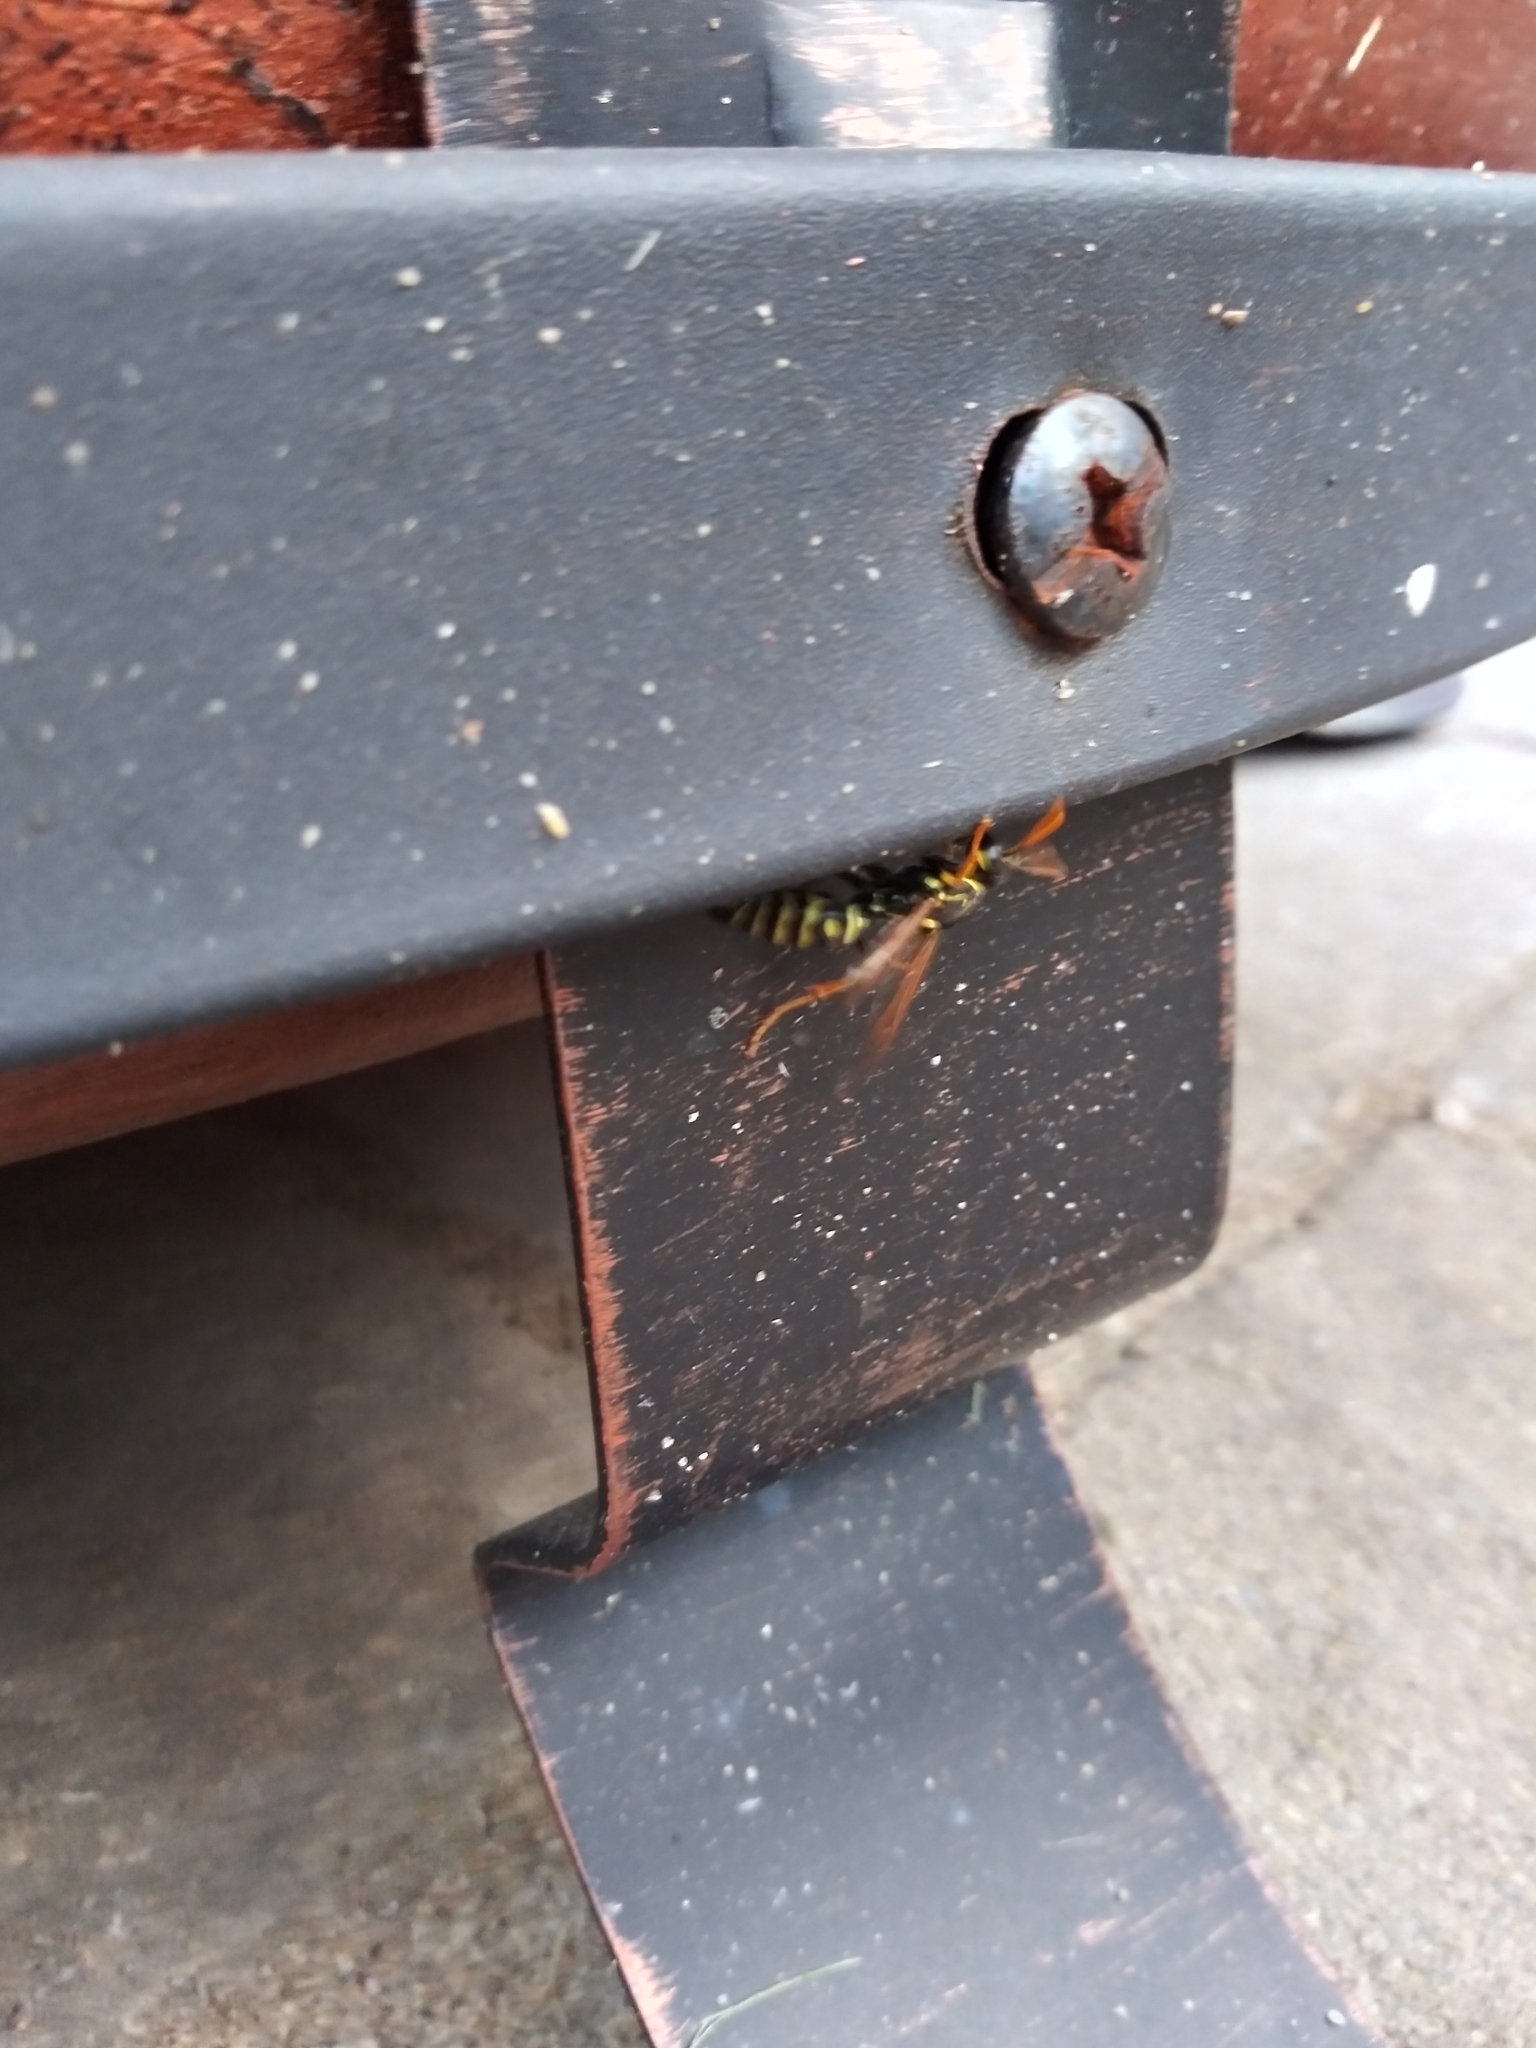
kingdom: Animalia
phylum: Arthropoda
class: Insecta
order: Hymenoptera
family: Eumenidae
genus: Polistes
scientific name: Polistes dominula
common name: Paper wasp
